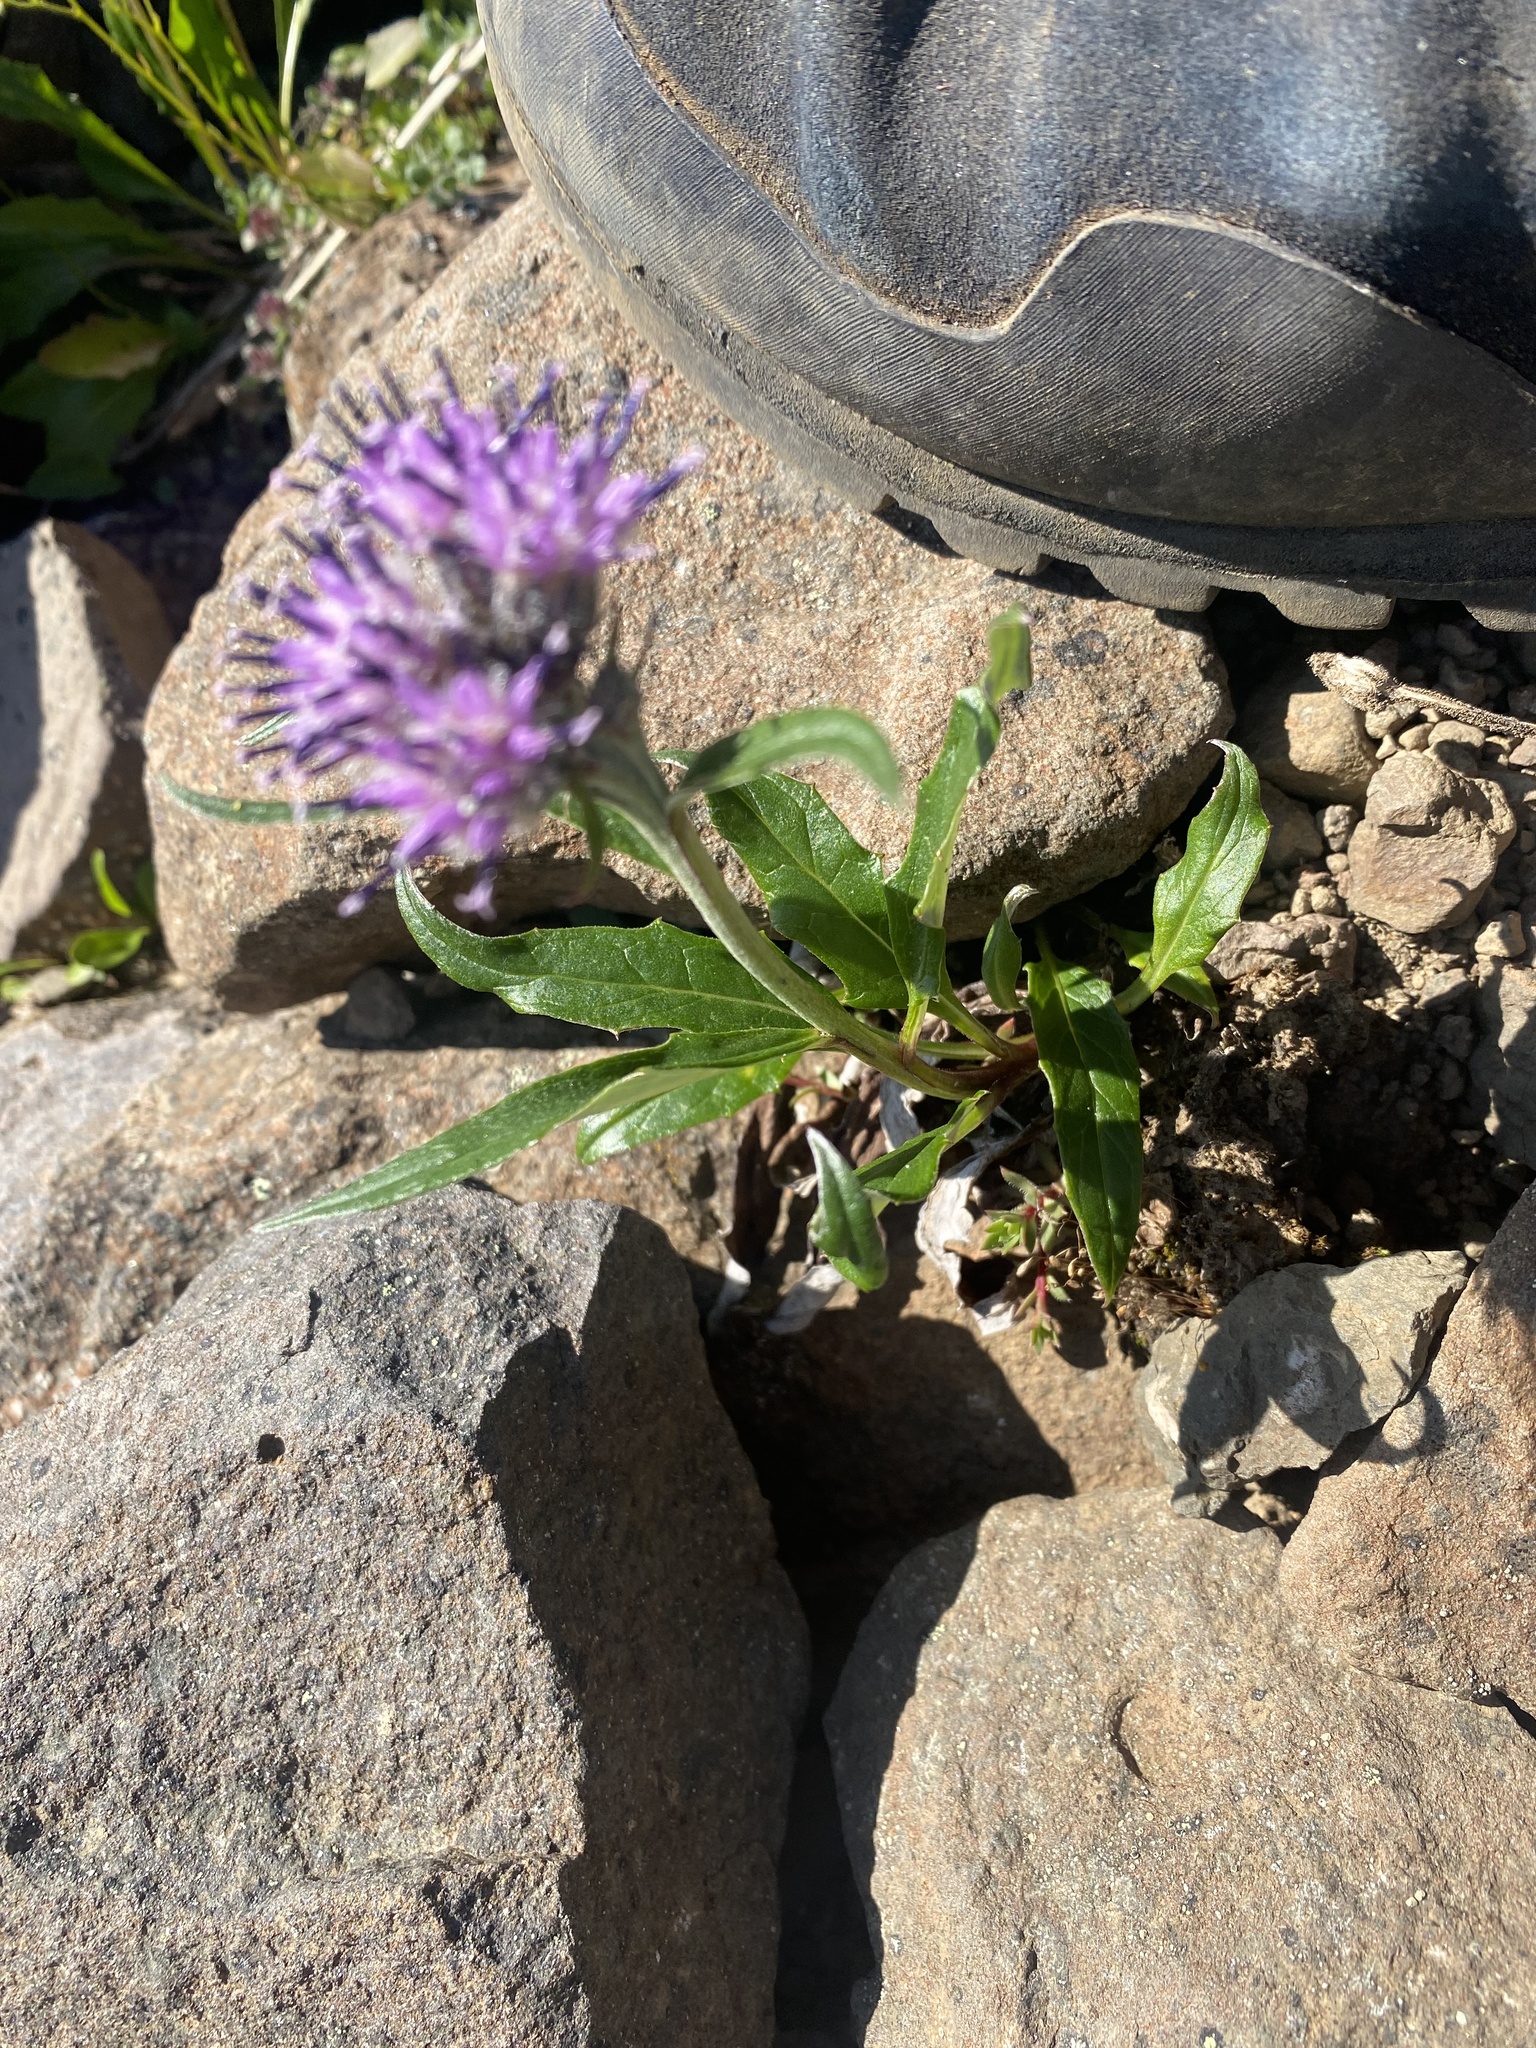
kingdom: Plantae
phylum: Tracheophyta
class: Magnoliopsida
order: Asterales
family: Asteraceae
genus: Saussurea
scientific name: Saussurea tilesii
